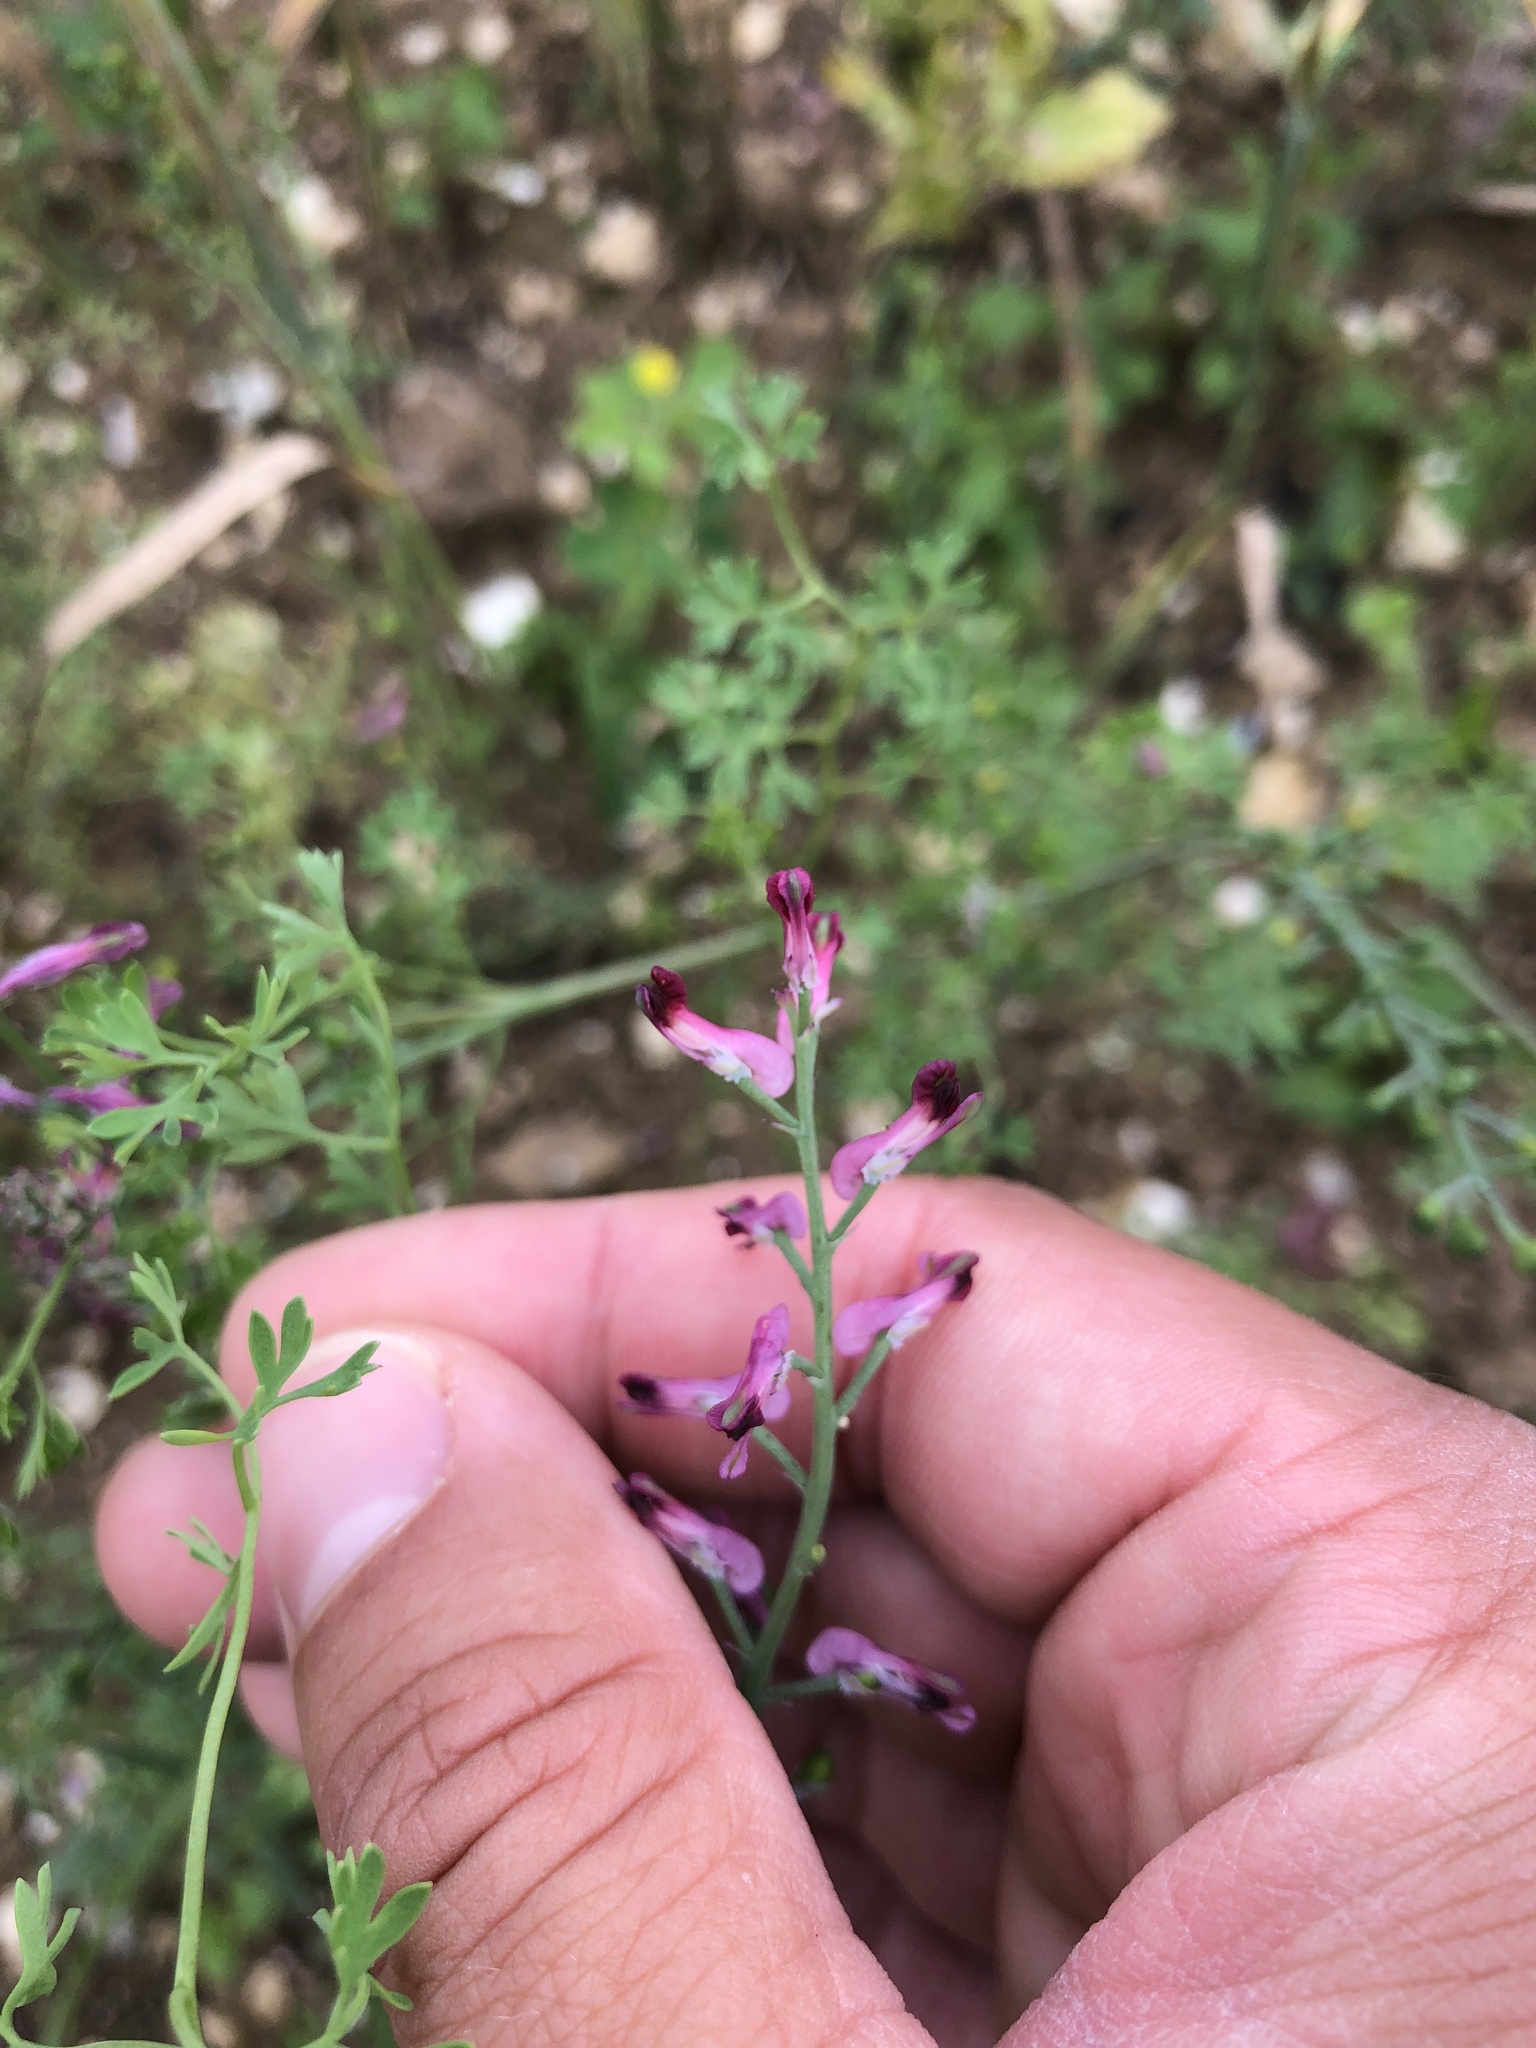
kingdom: Plantae
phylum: Tracheophyta
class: Magnoliopsida
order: Ranunculales
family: Papaveraceae
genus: Fumaria
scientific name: Fumaria officinalis
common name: Common fumitory
